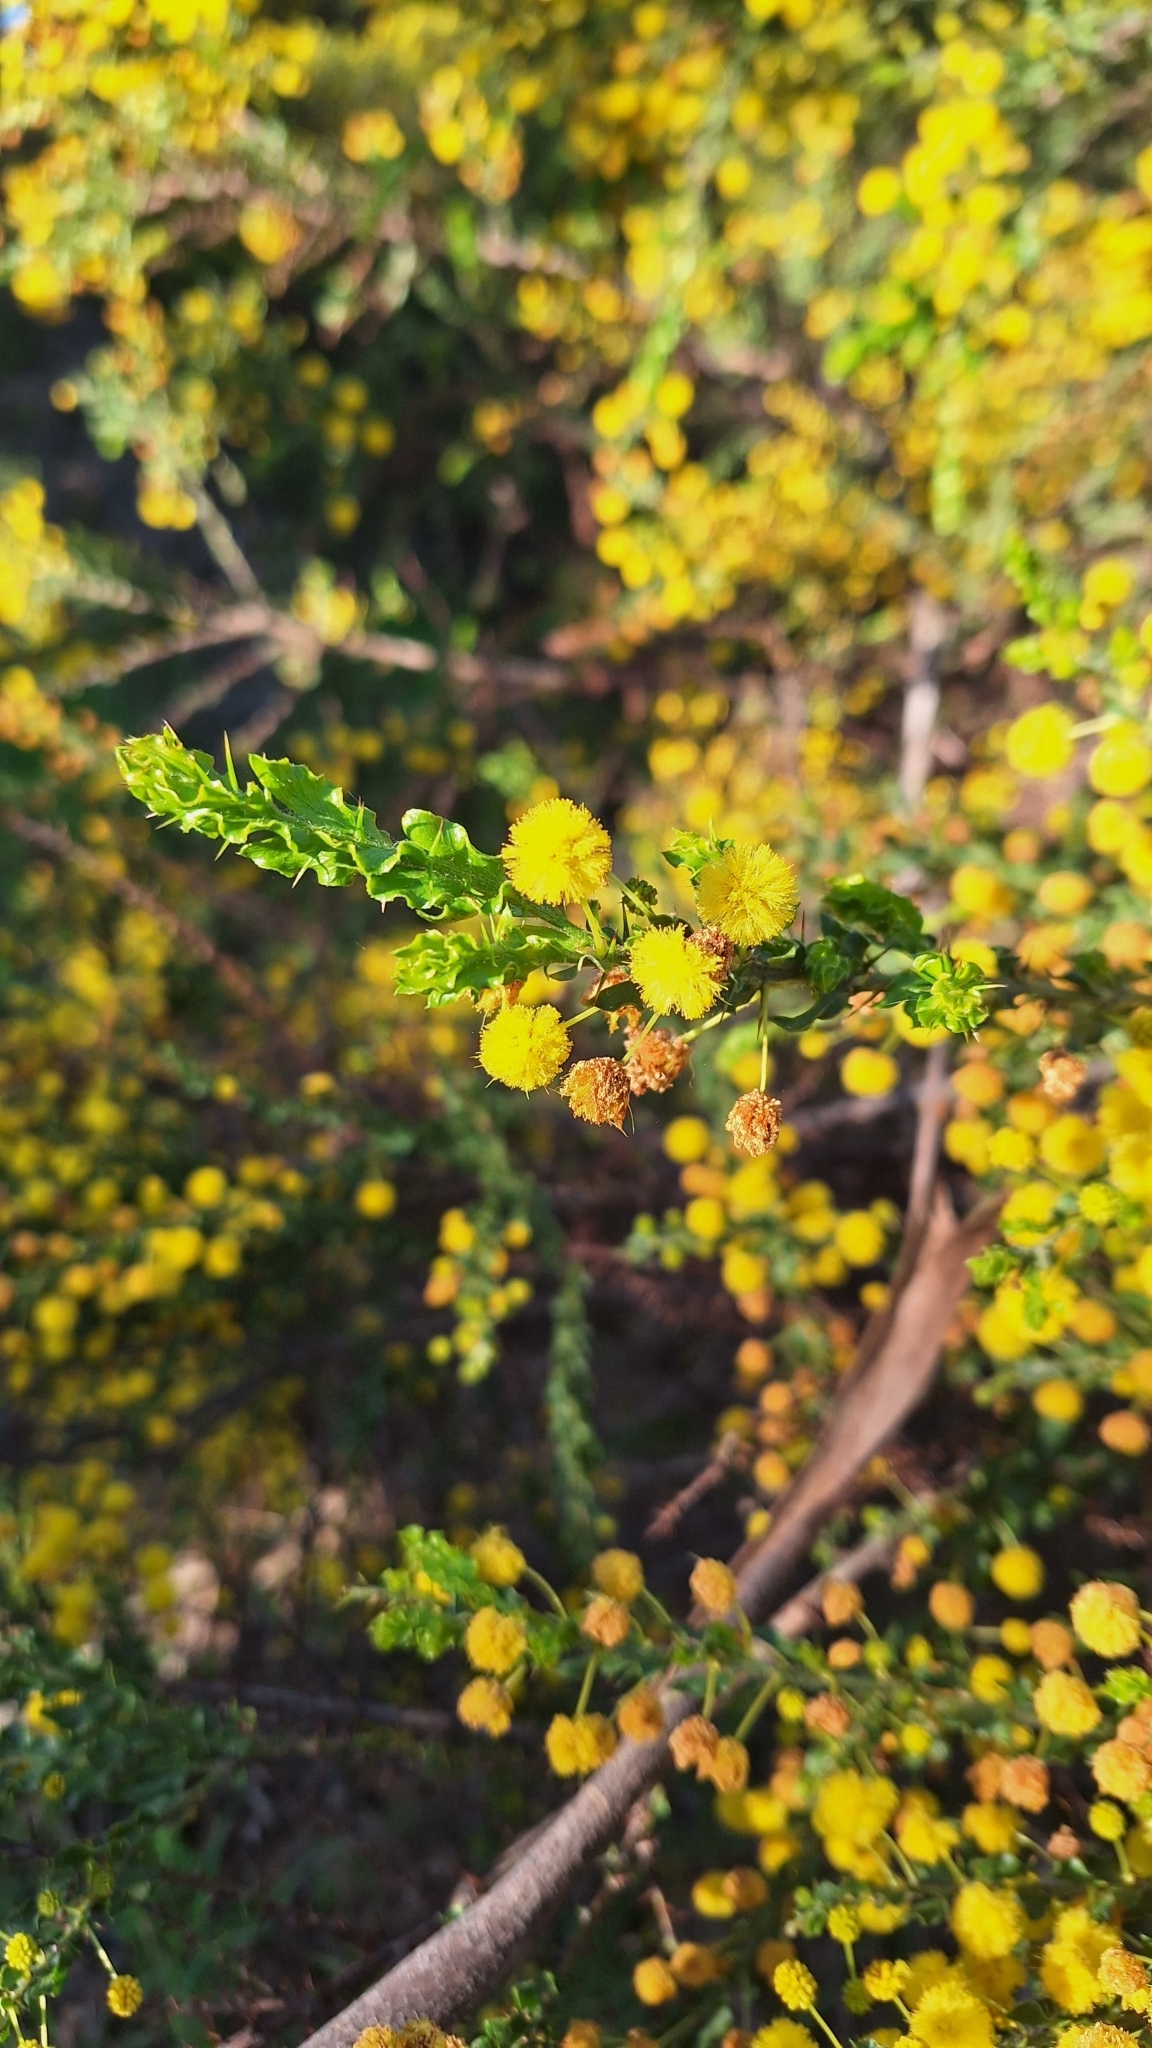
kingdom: Plantae
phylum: Tracheophyta
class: Magnoliopsida
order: Fabales
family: Fabaceae
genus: Acacia
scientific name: Acacia paradoxa
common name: Paradox acacia
